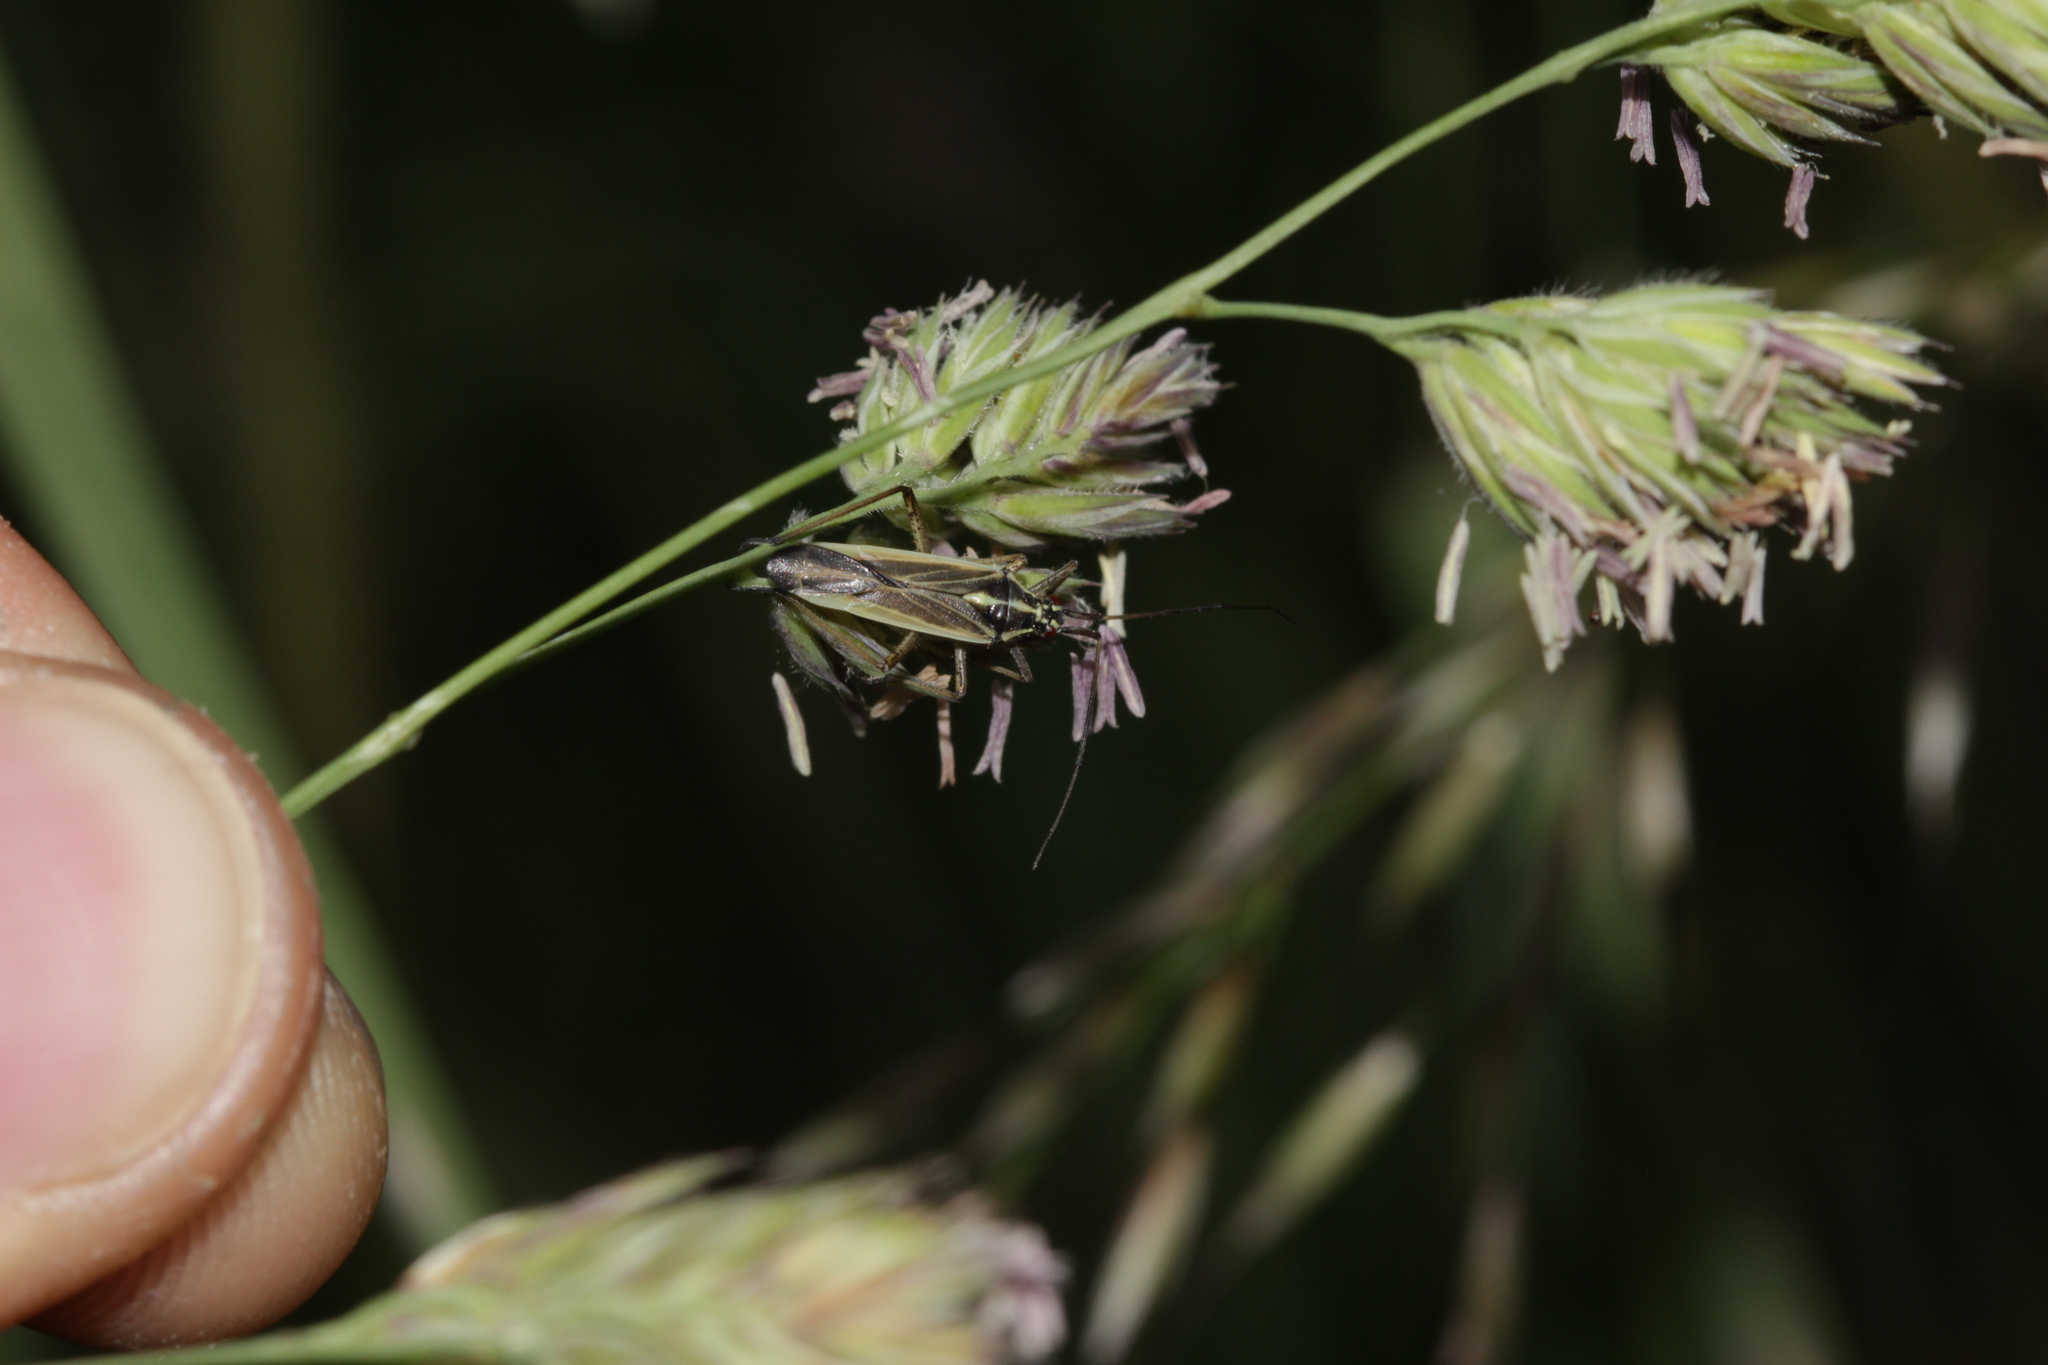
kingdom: Animalia
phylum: Arthropoda
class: Insecta
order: Hemiptera
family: Miridae
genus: Leptopterna
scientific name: Leptopterna dolabrata
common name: Meadow plant bug
